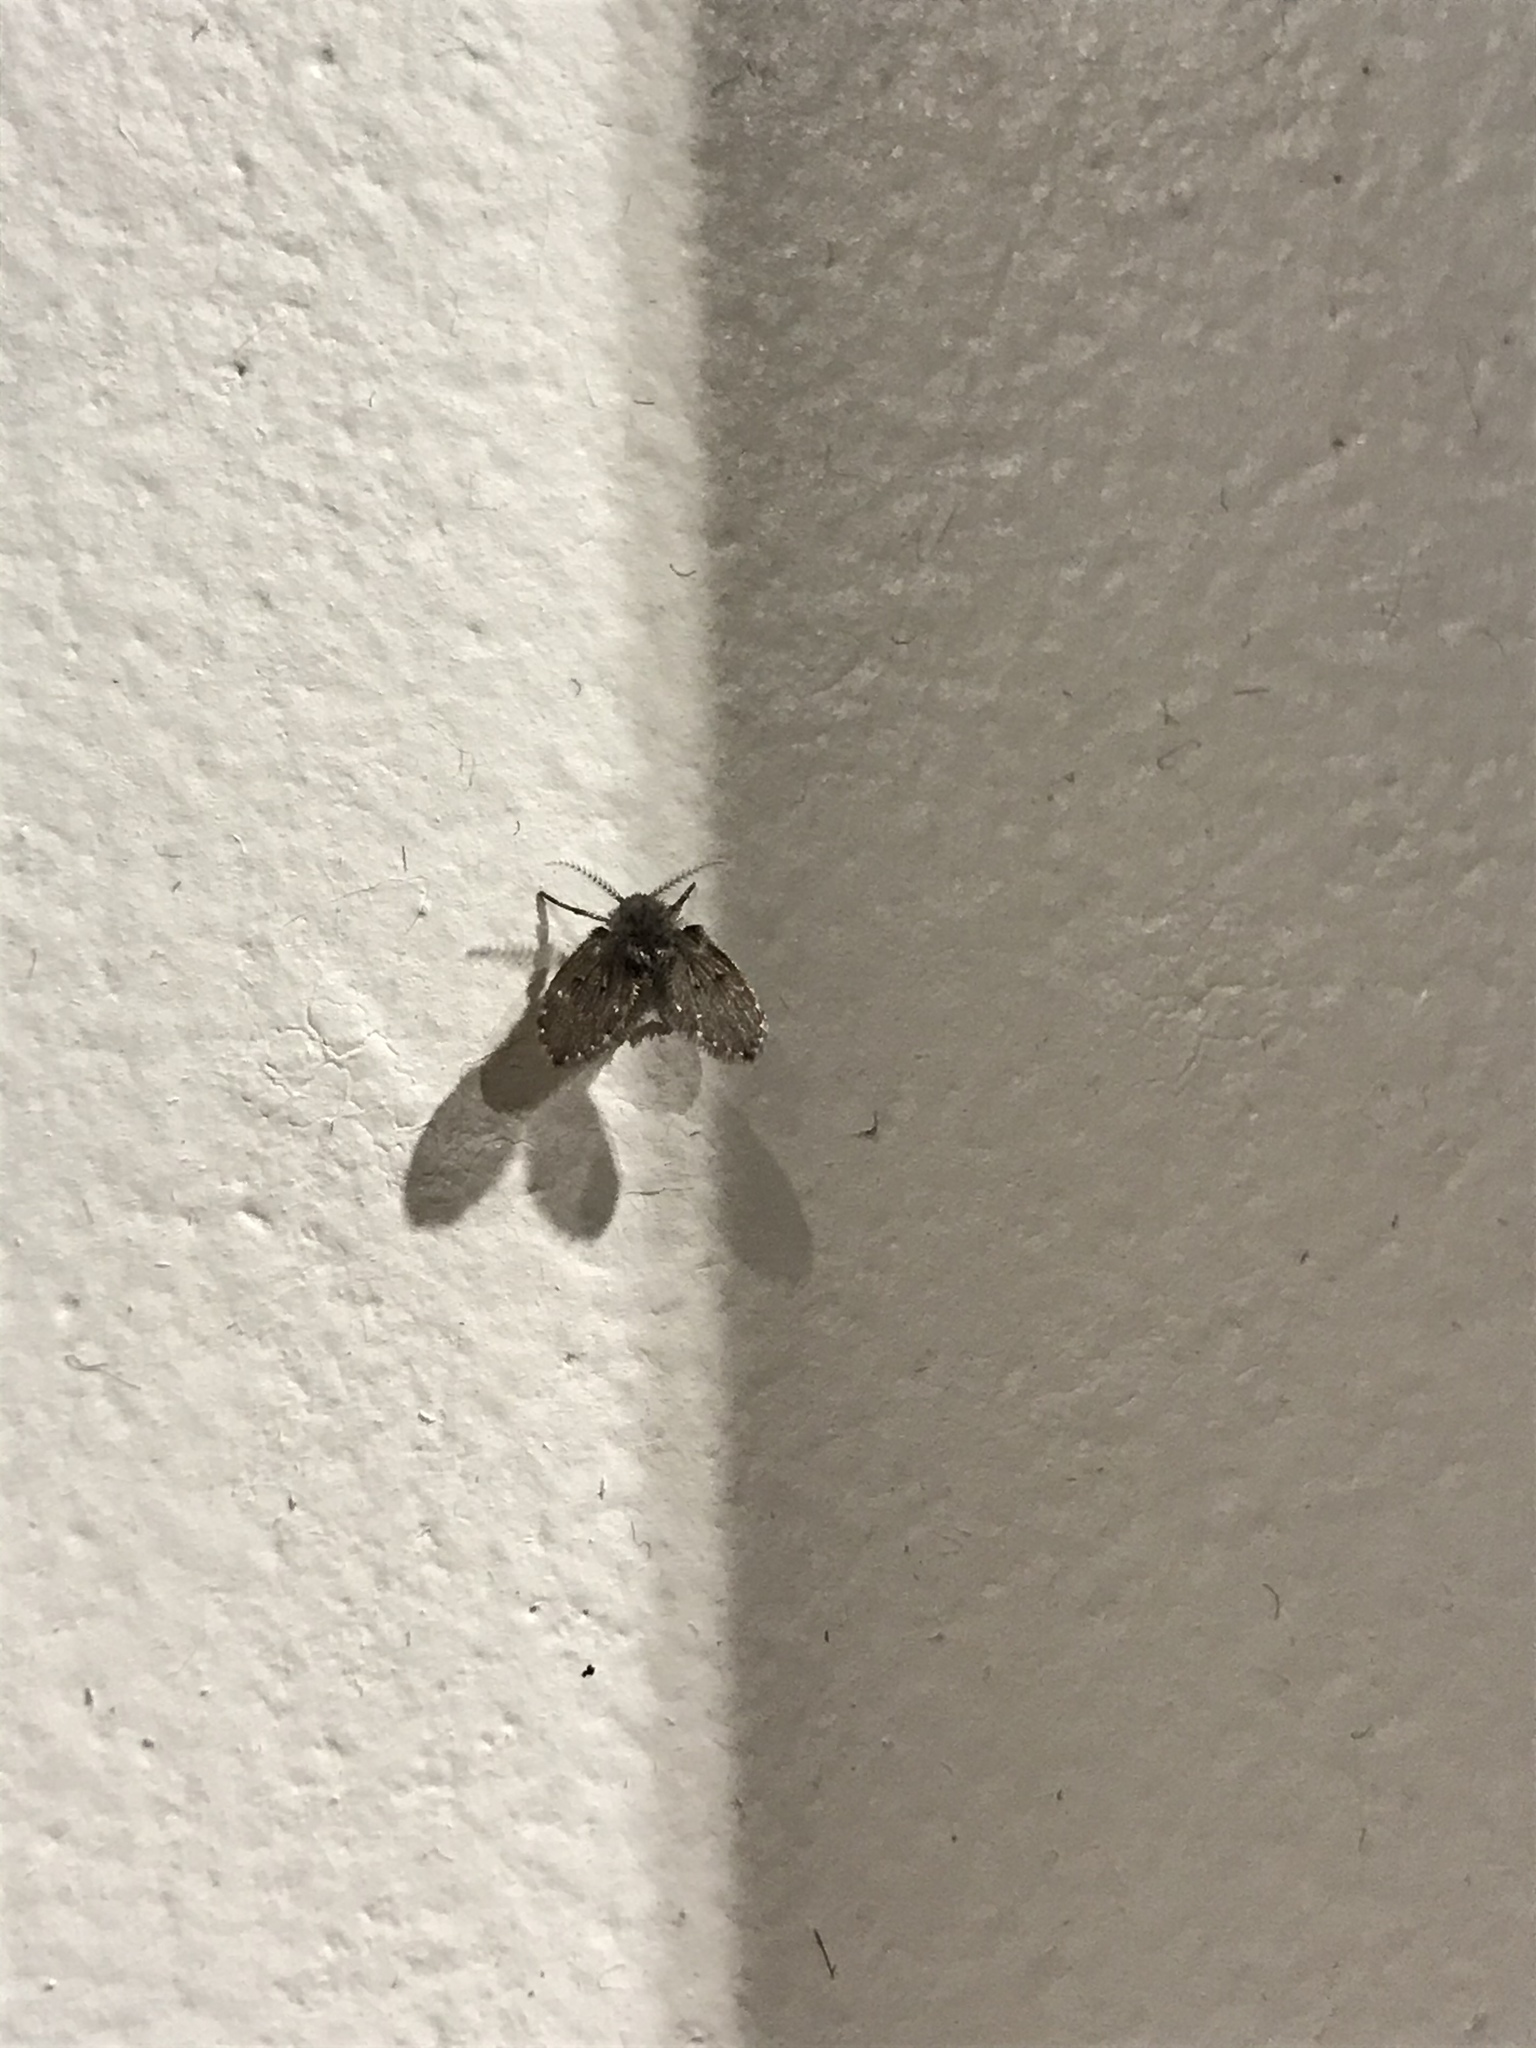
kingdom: Animalia
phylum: Arthropoda
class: Insecta
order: Diptera
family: Psychodidae
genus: Clogmia
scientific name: Clogmia albipunctatus
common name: White-spotted moth fly
